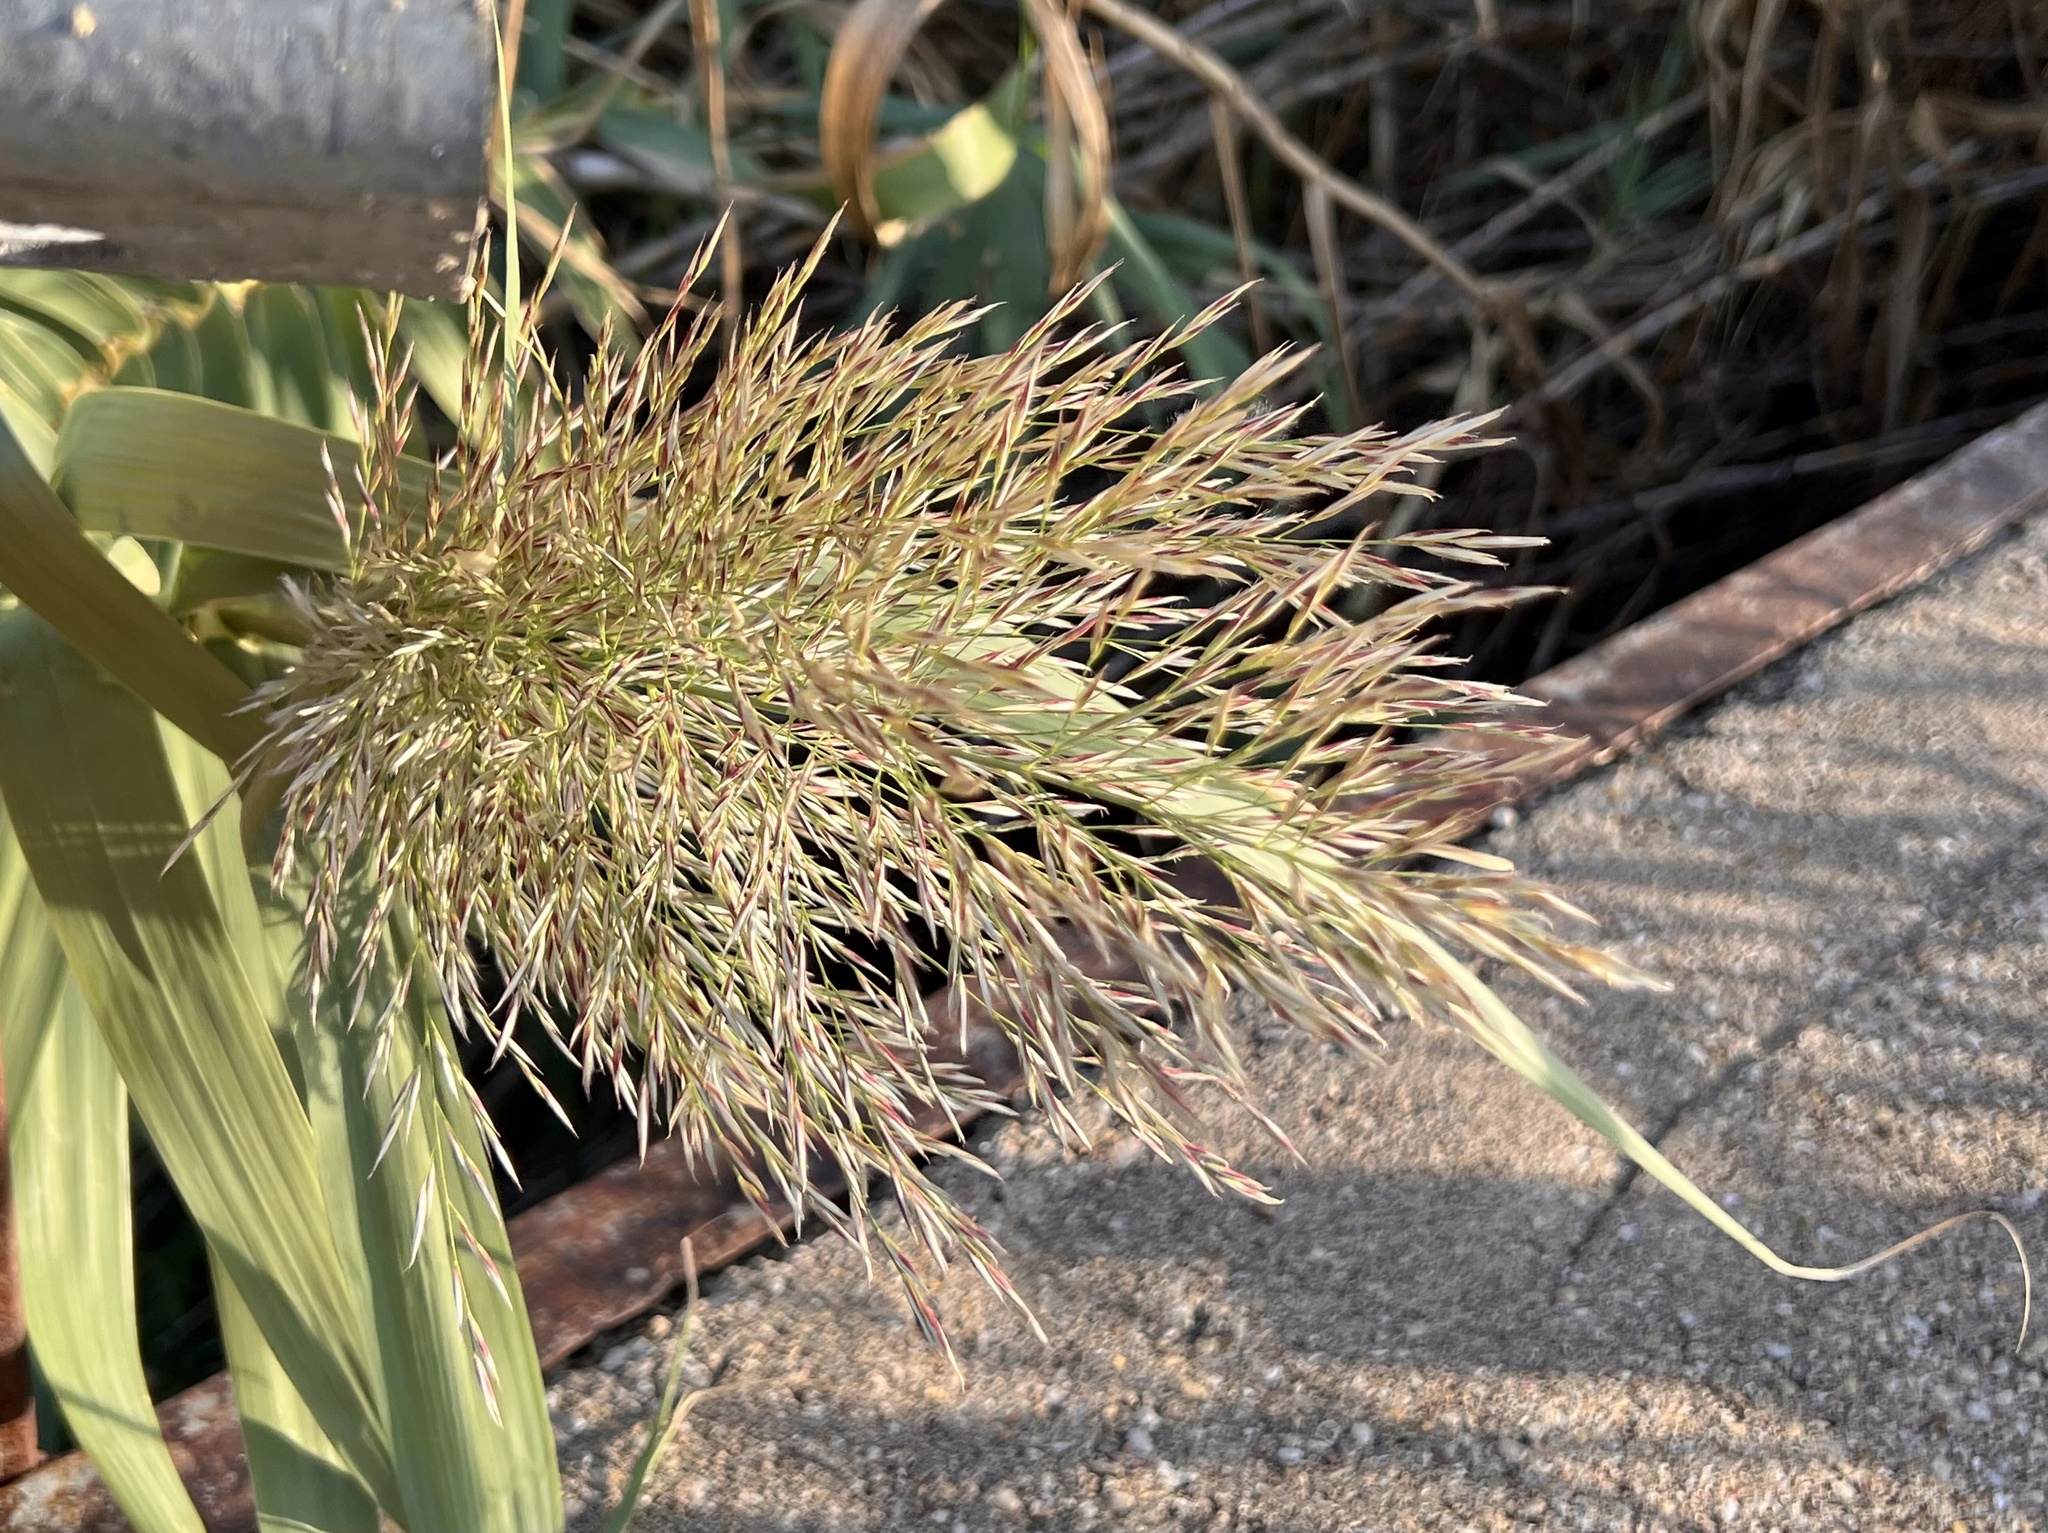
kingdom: Plantae
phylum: Tracheophyta
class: Liliopsida
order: Poales
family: Poaceae
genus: Arundo
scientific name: Arundo donax
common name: Giant reed
